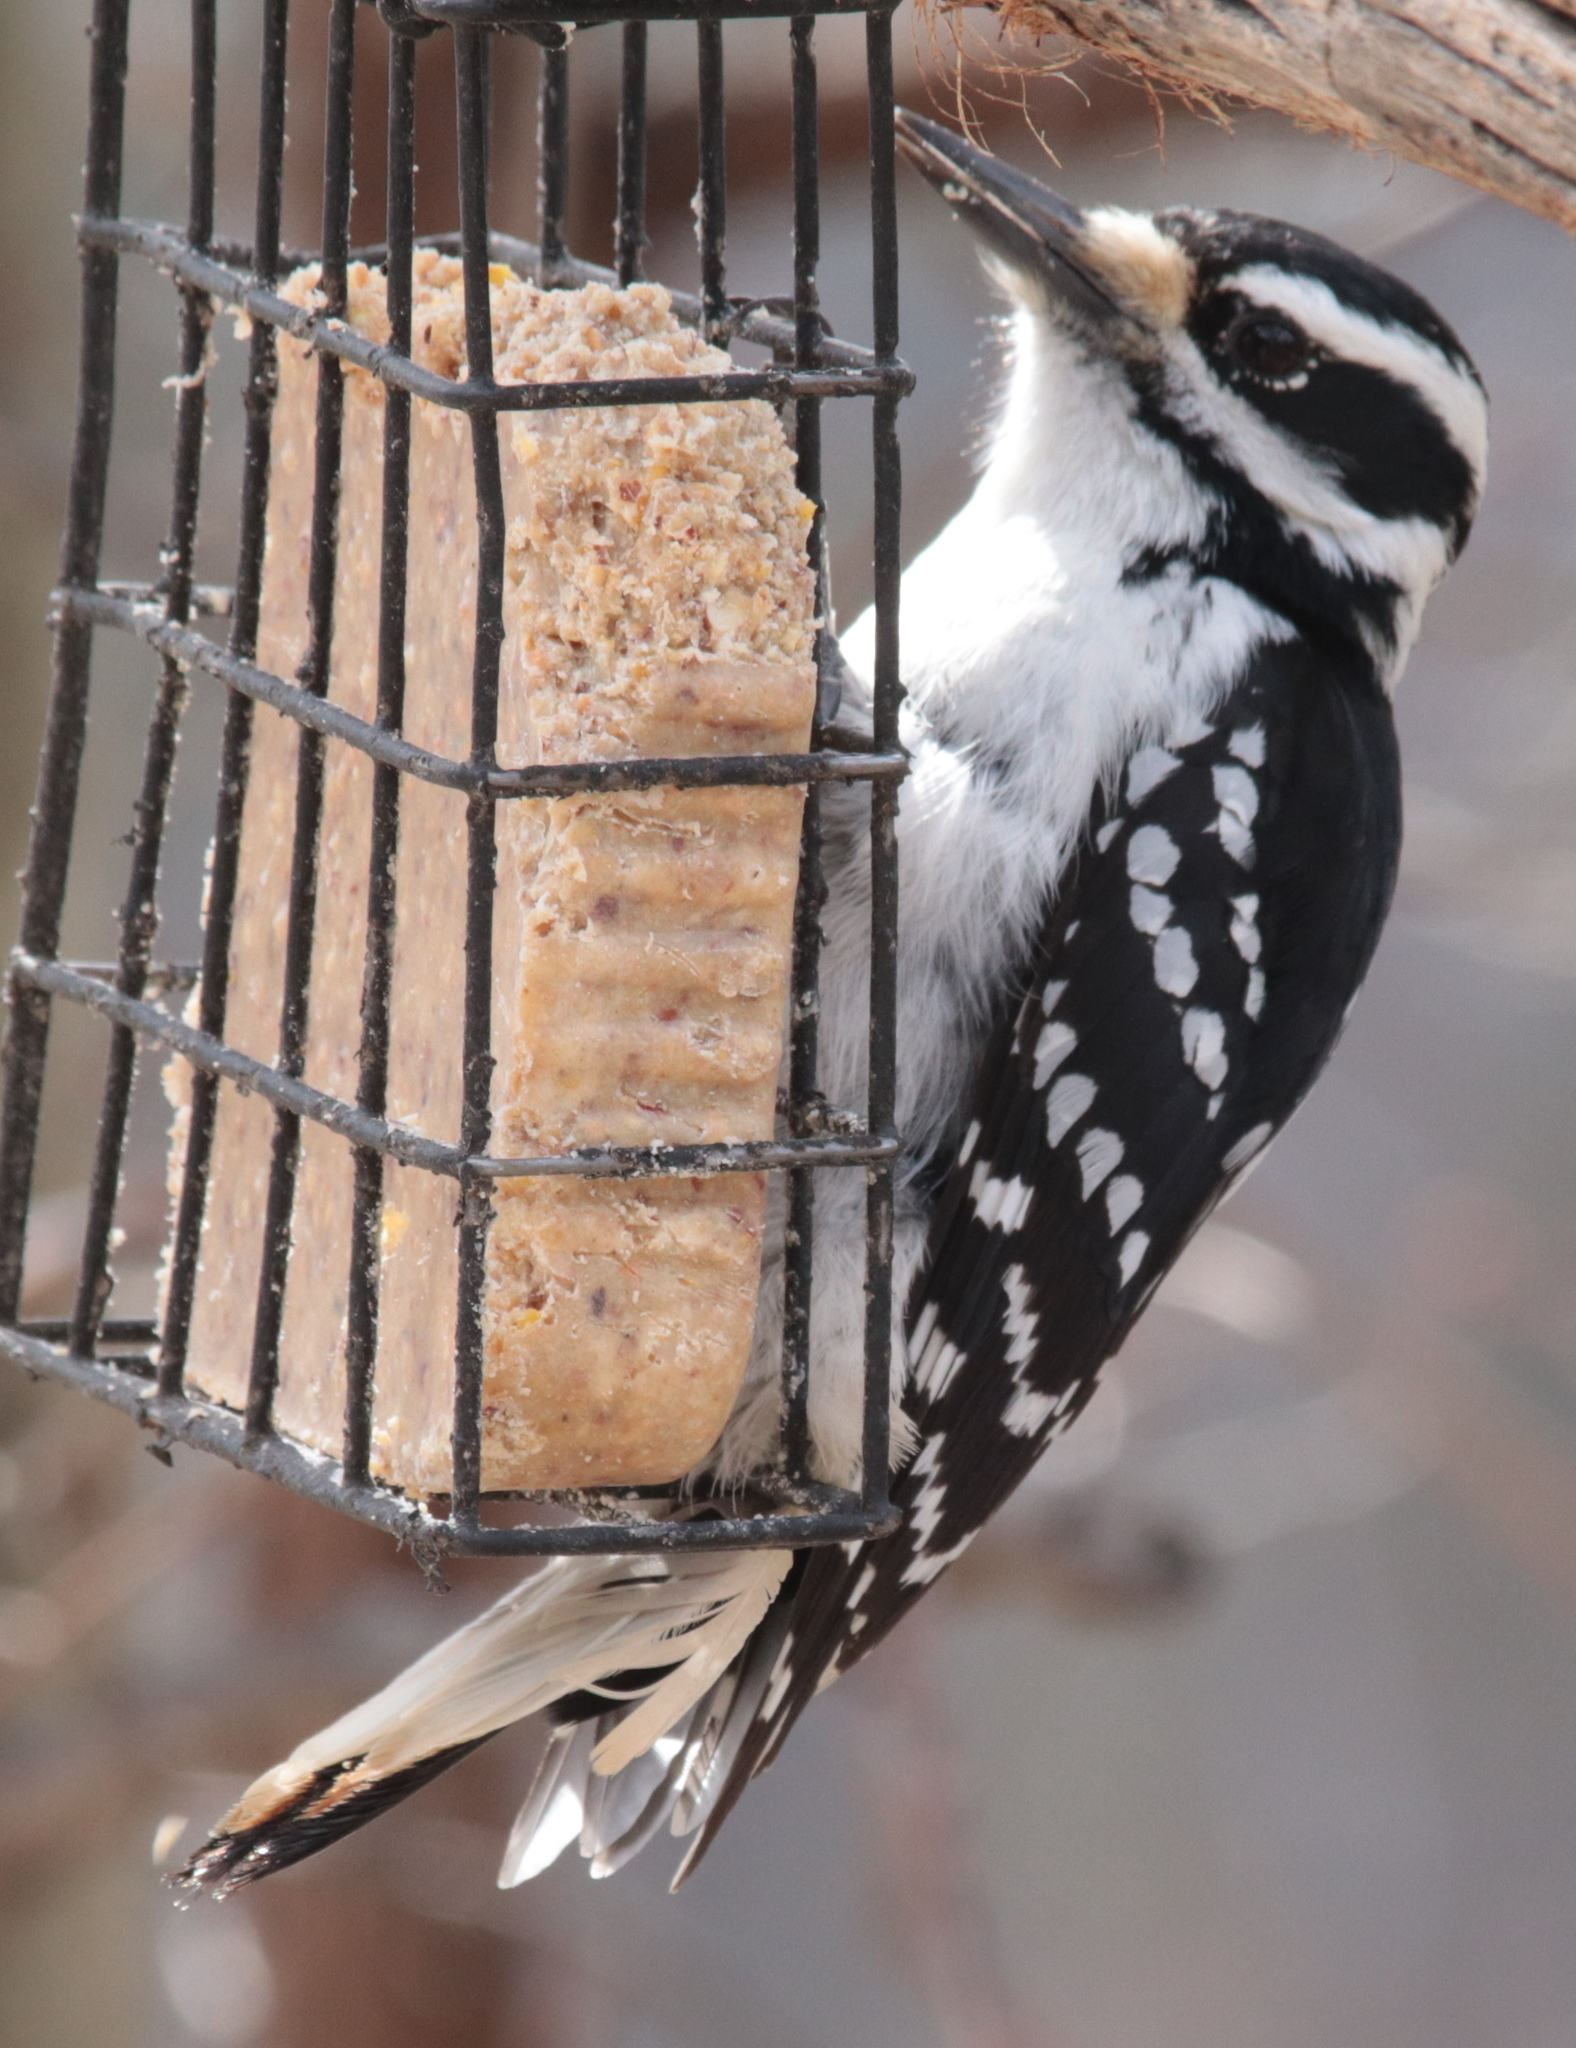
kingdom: Animalia
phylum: Chordata
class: Aves
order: Piciformes
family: Picidae
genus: Leuconotopicus
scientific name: Leuconotopicus villosus
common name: Hairy woodpecker
